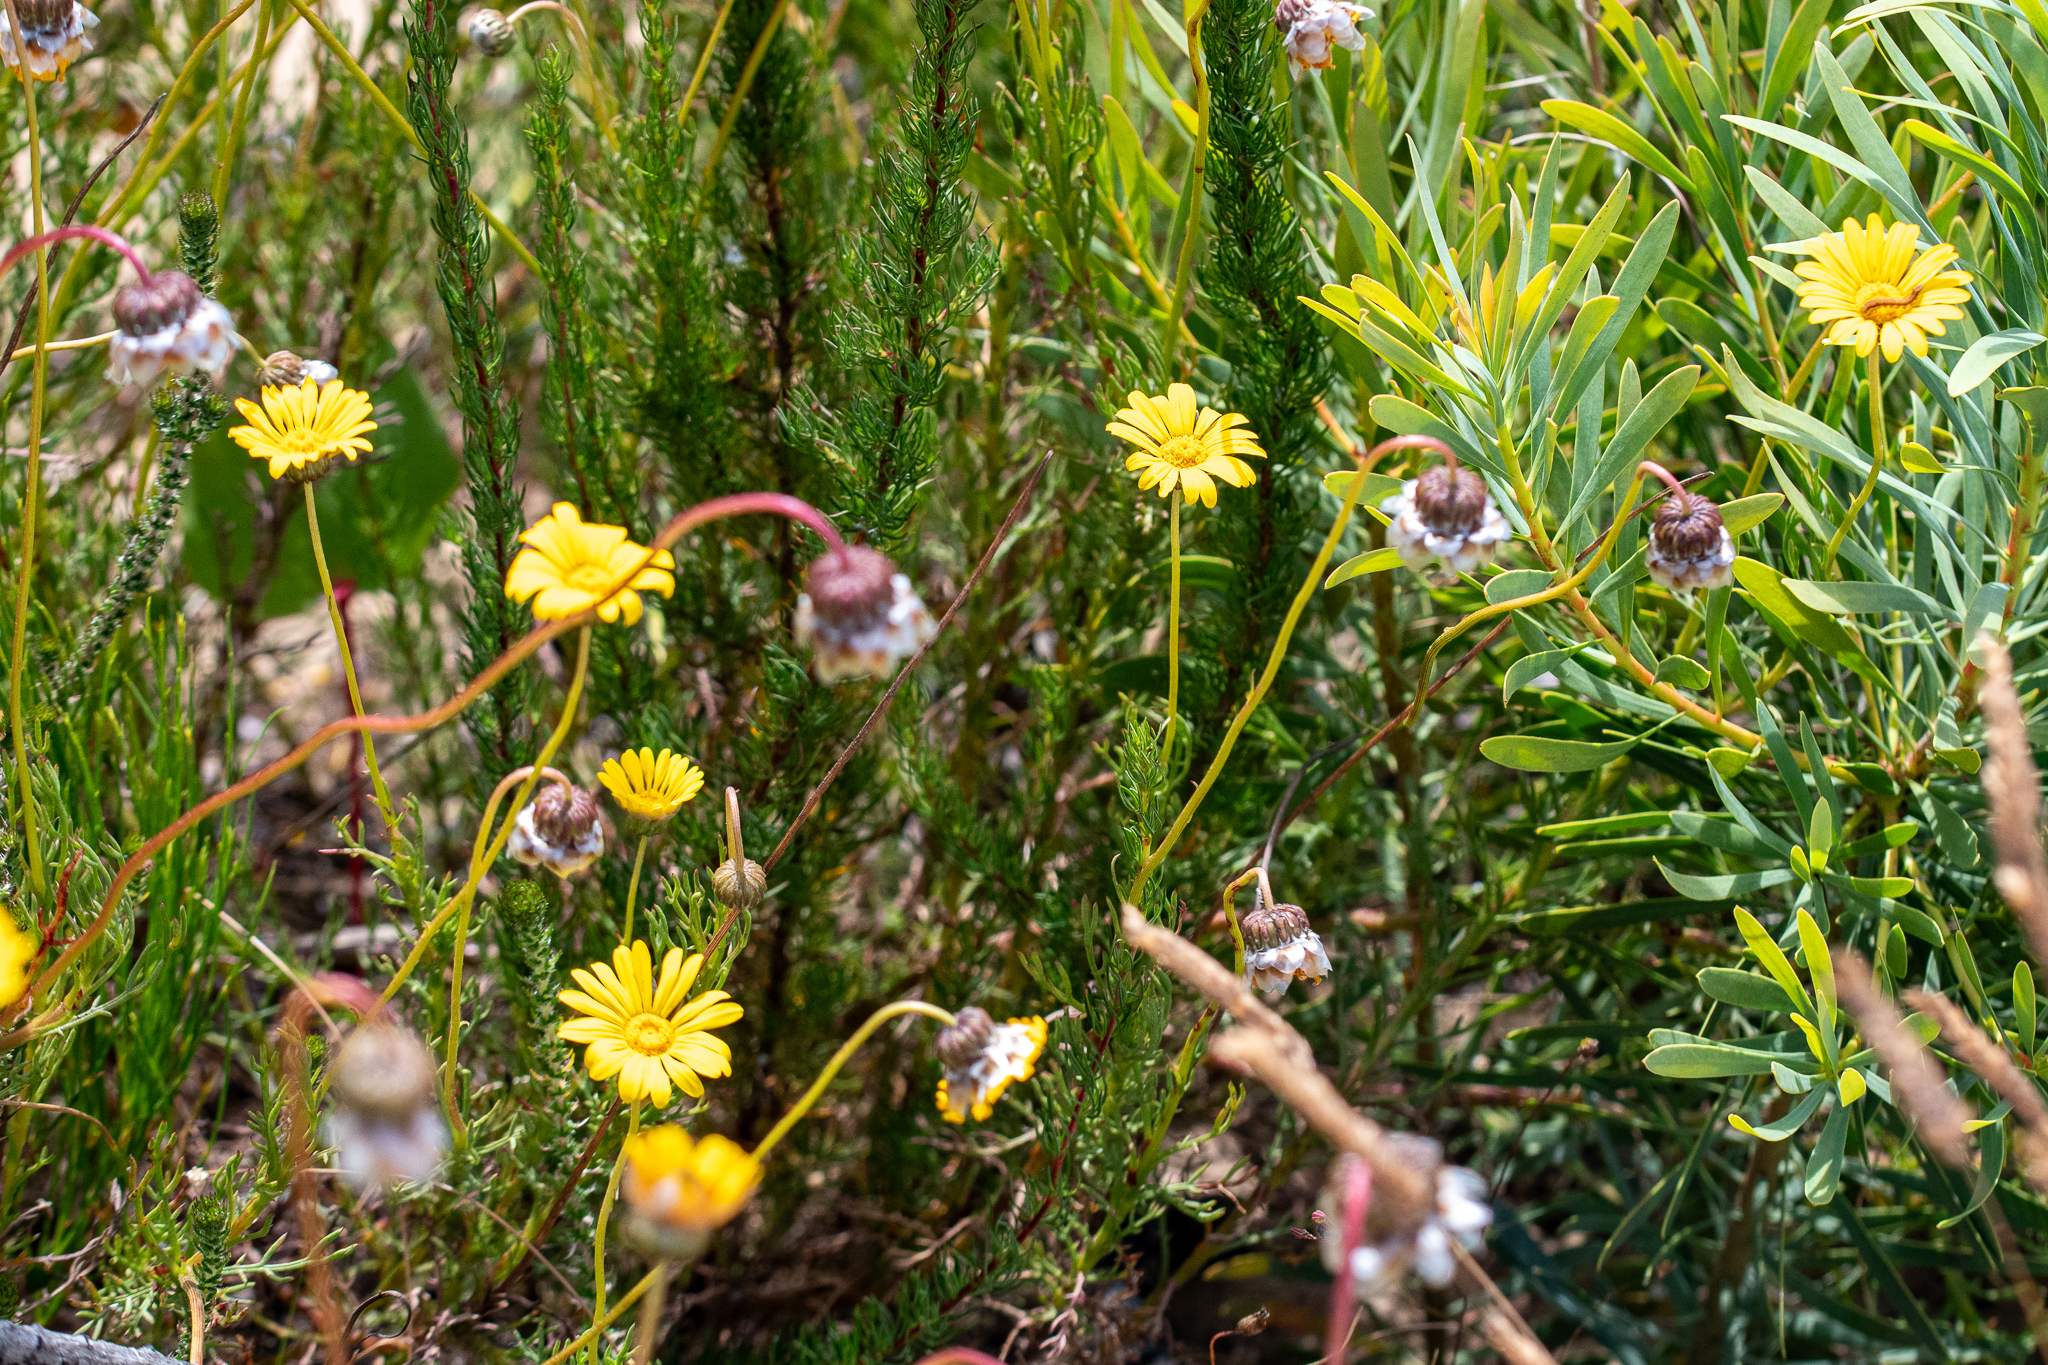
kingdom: Plantae
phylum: Tracheophyta
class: Magnoliopsida
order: Asterales
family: Asteraceae
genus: Ursinia
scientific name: Ursinia paleacea
